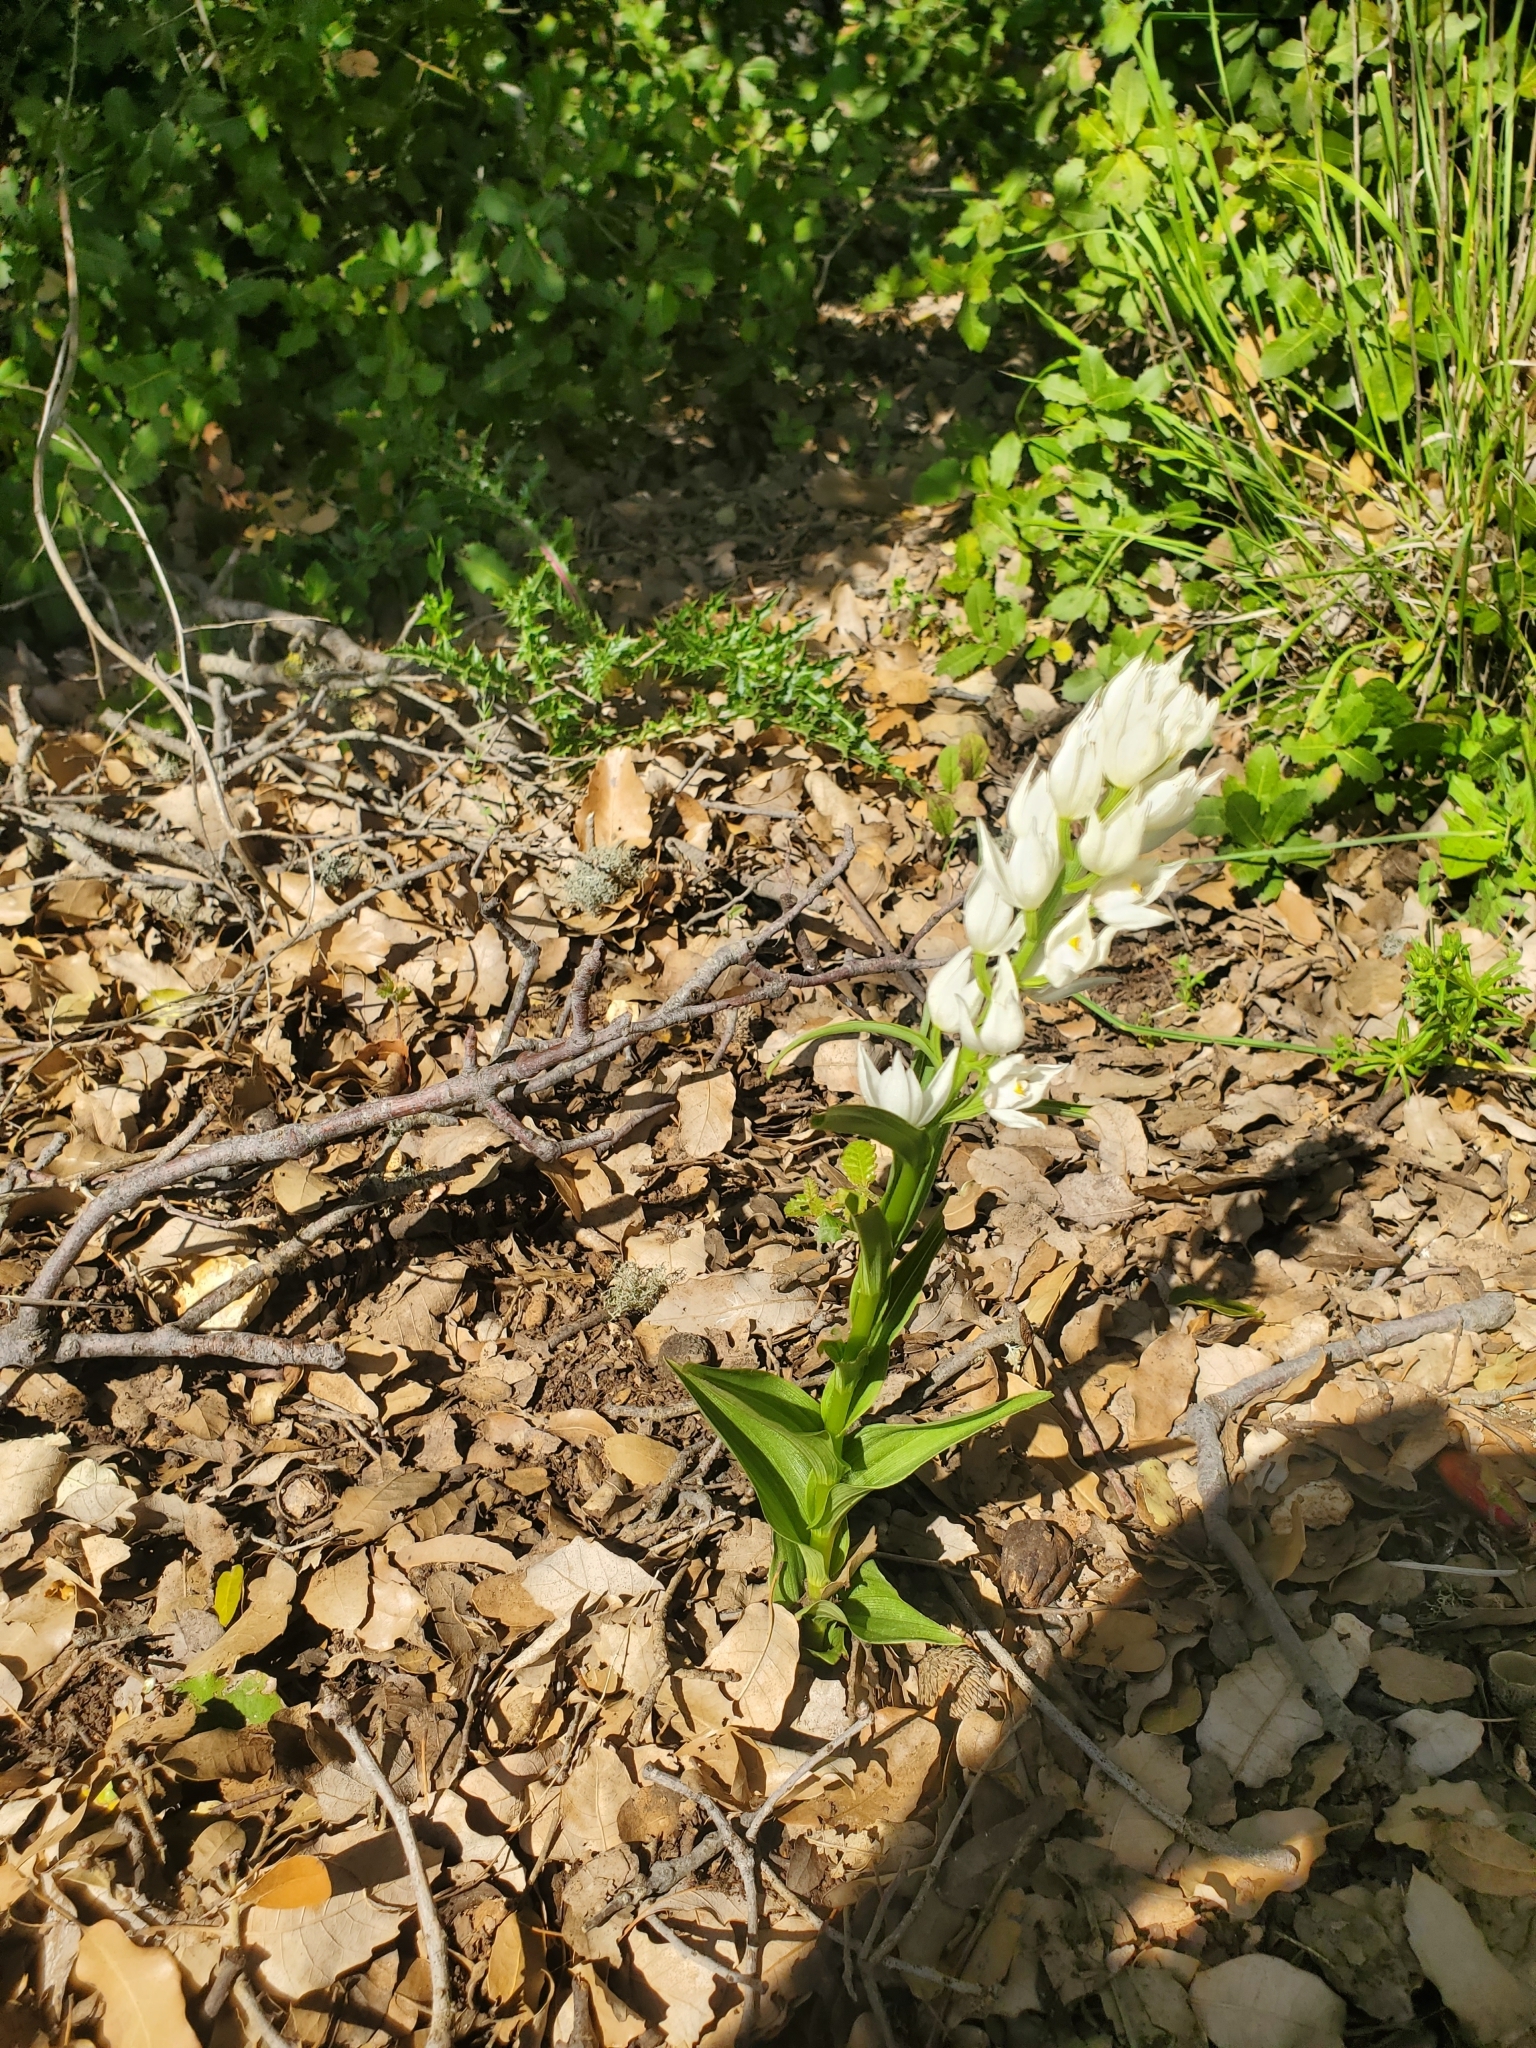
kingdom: Plantae
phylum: Tracheophyta
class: Liliopsida
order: Asparagales
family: Orchidaceae
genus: Cephalanthera
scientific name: Cephalanthera longifolia
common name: Narrow-leaved helleborine
